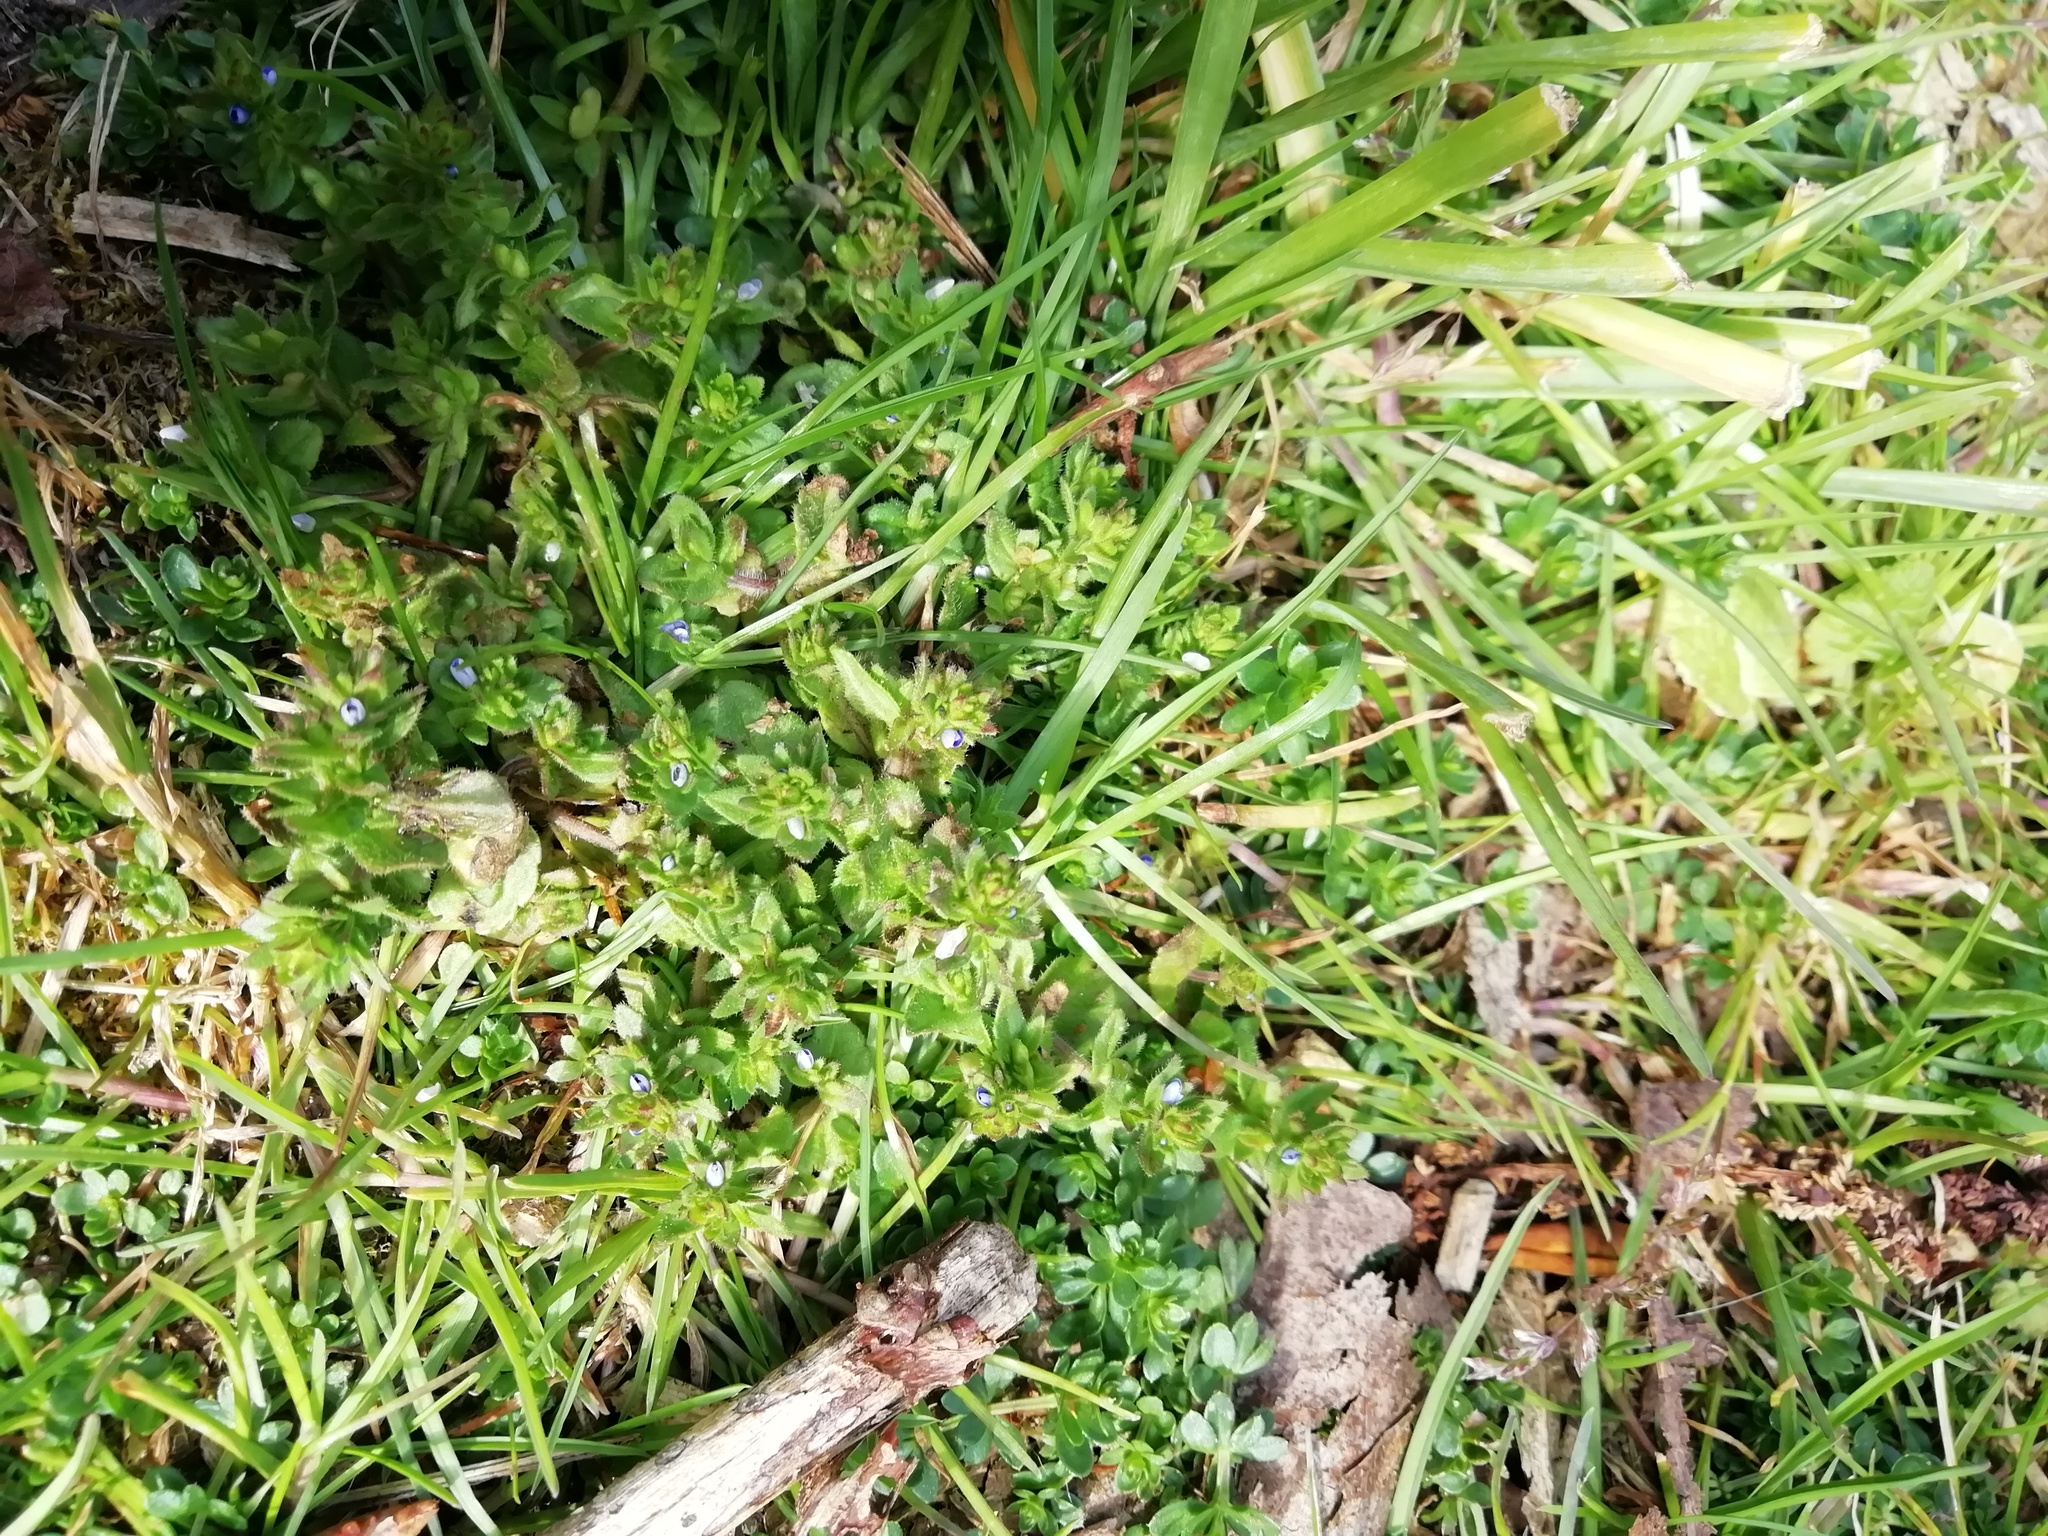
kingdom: Plantae
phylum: Tracheophyta
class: Magnoliopsida
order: Lamiales
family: Plantaginaceae
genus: Veronica
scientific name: Veronica arvensis
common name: Corn speedwell
